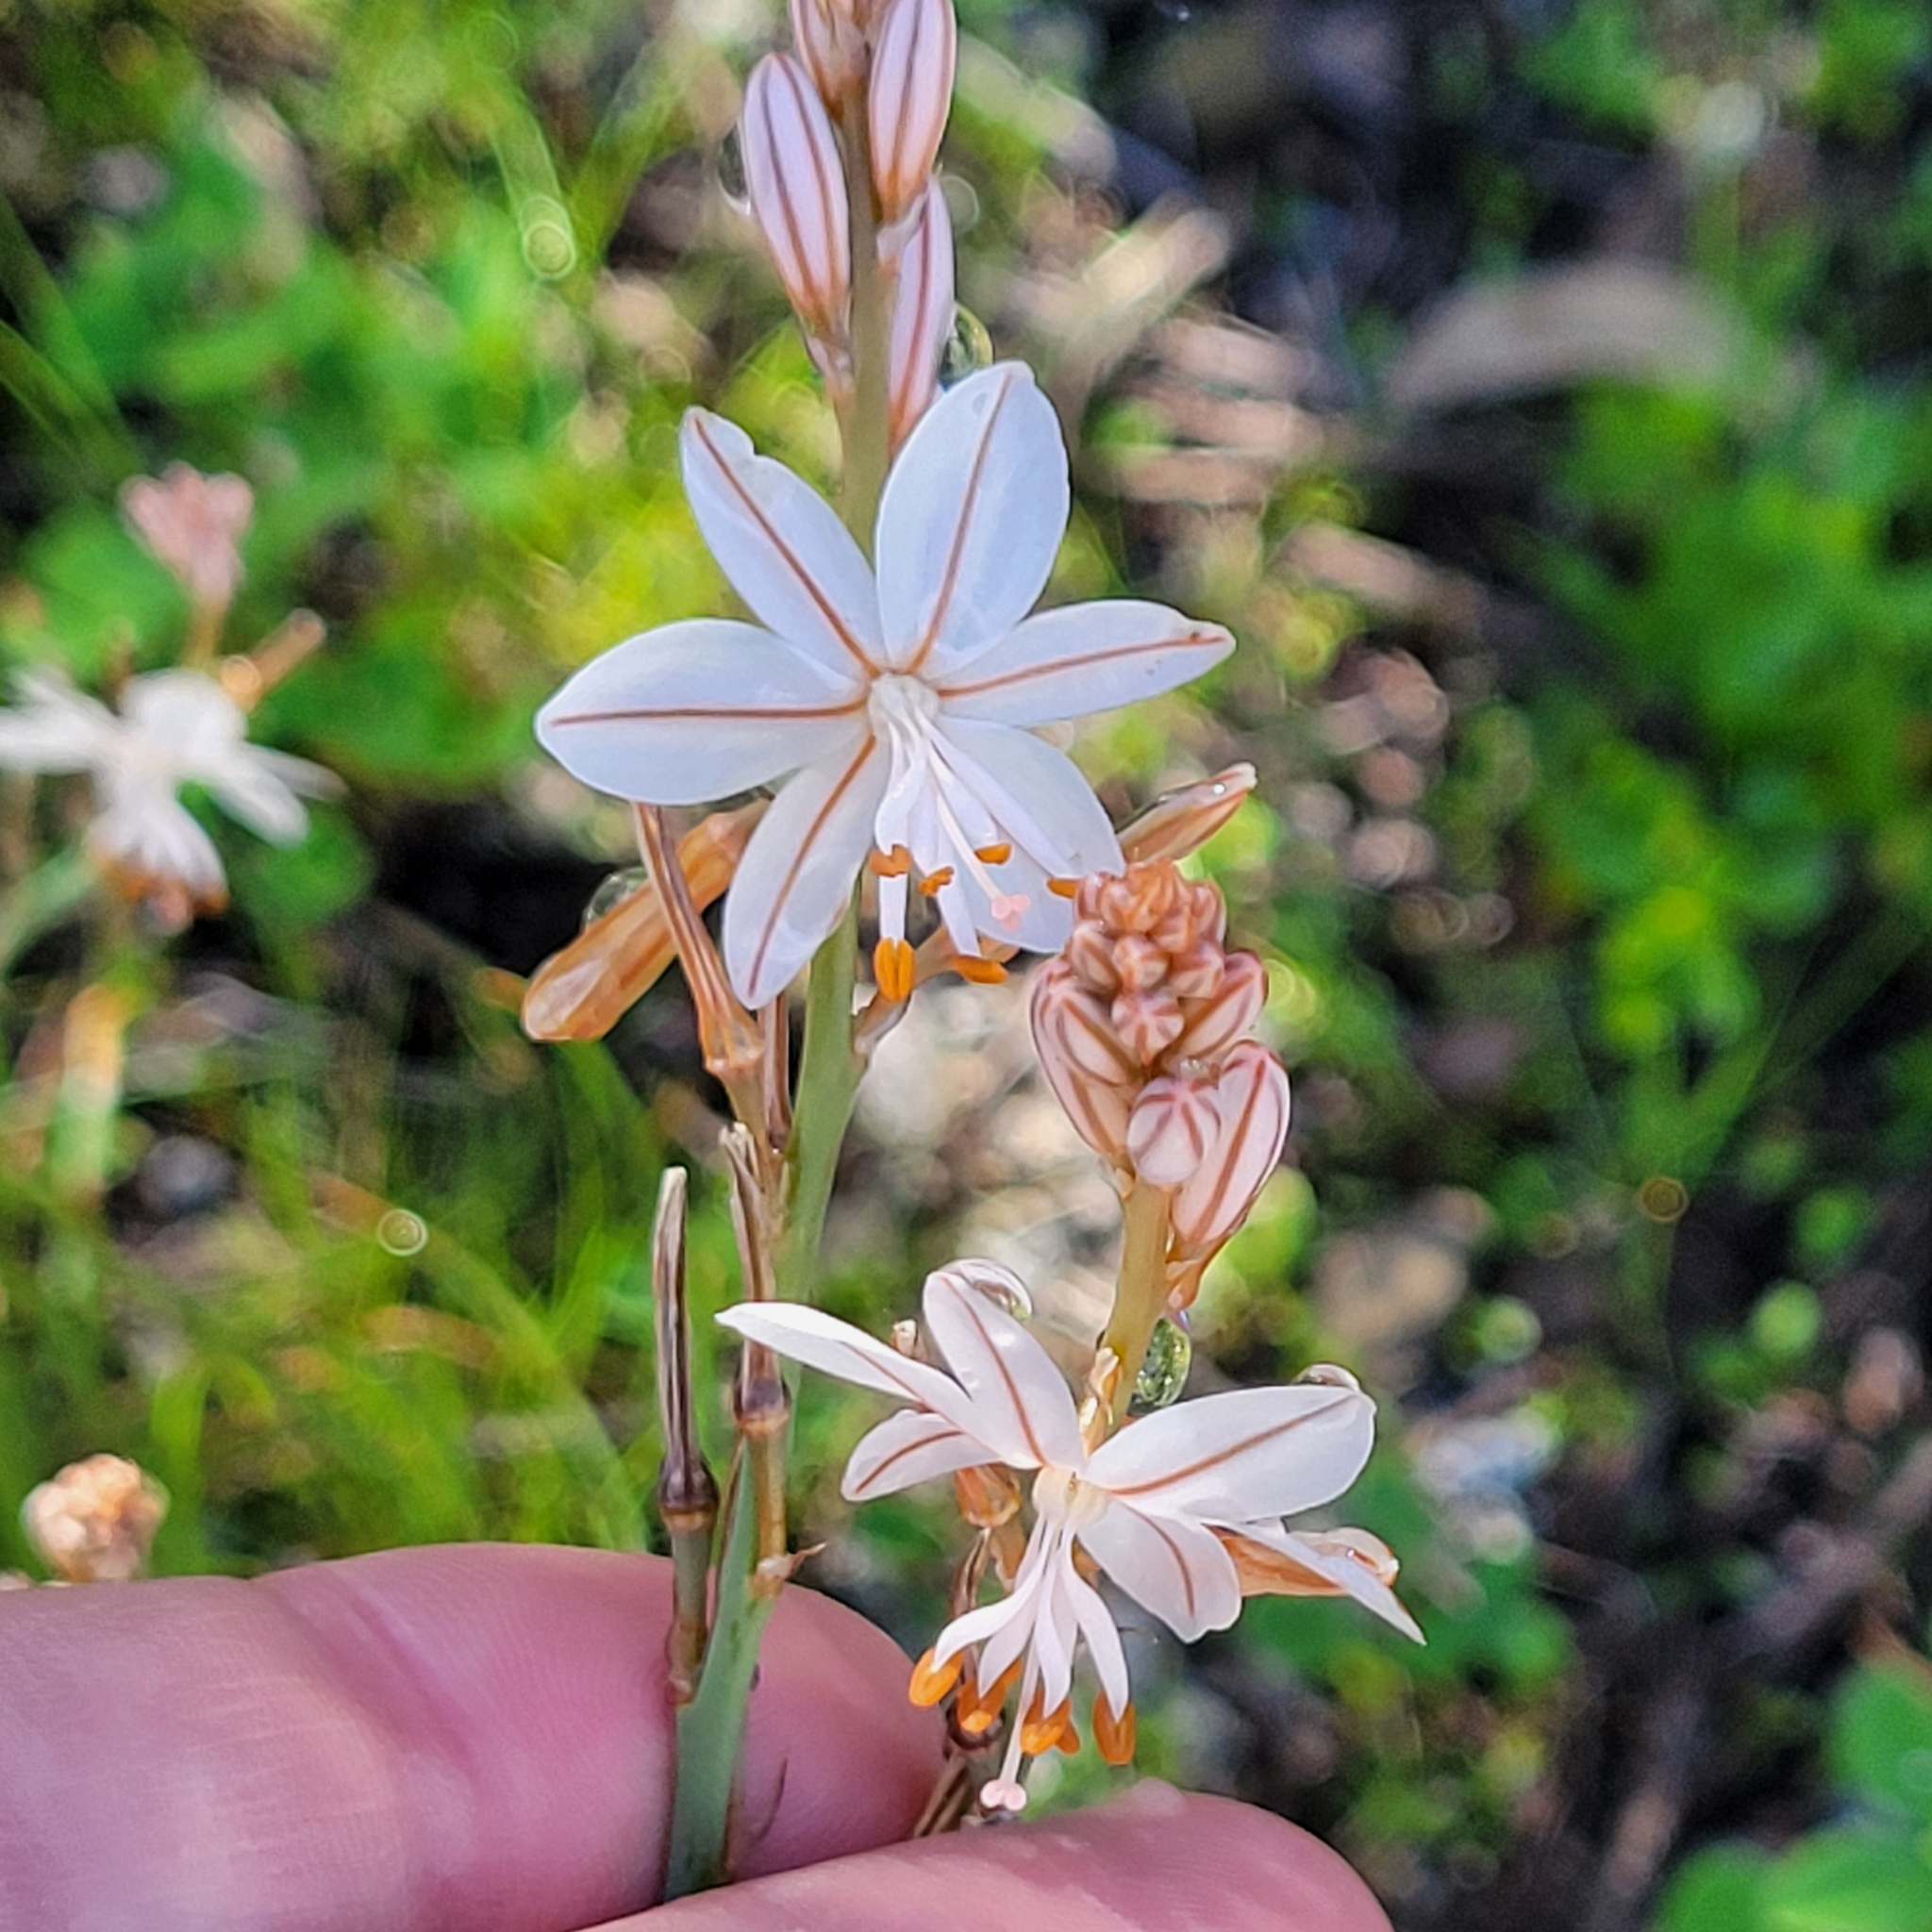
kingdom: Plantae
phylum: Tracheophyta
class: Liliopsida
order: Asparagales
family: Asphodelaceae
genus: Asphodelus
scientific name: Asphodelus fistulosus
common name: Onionweed
